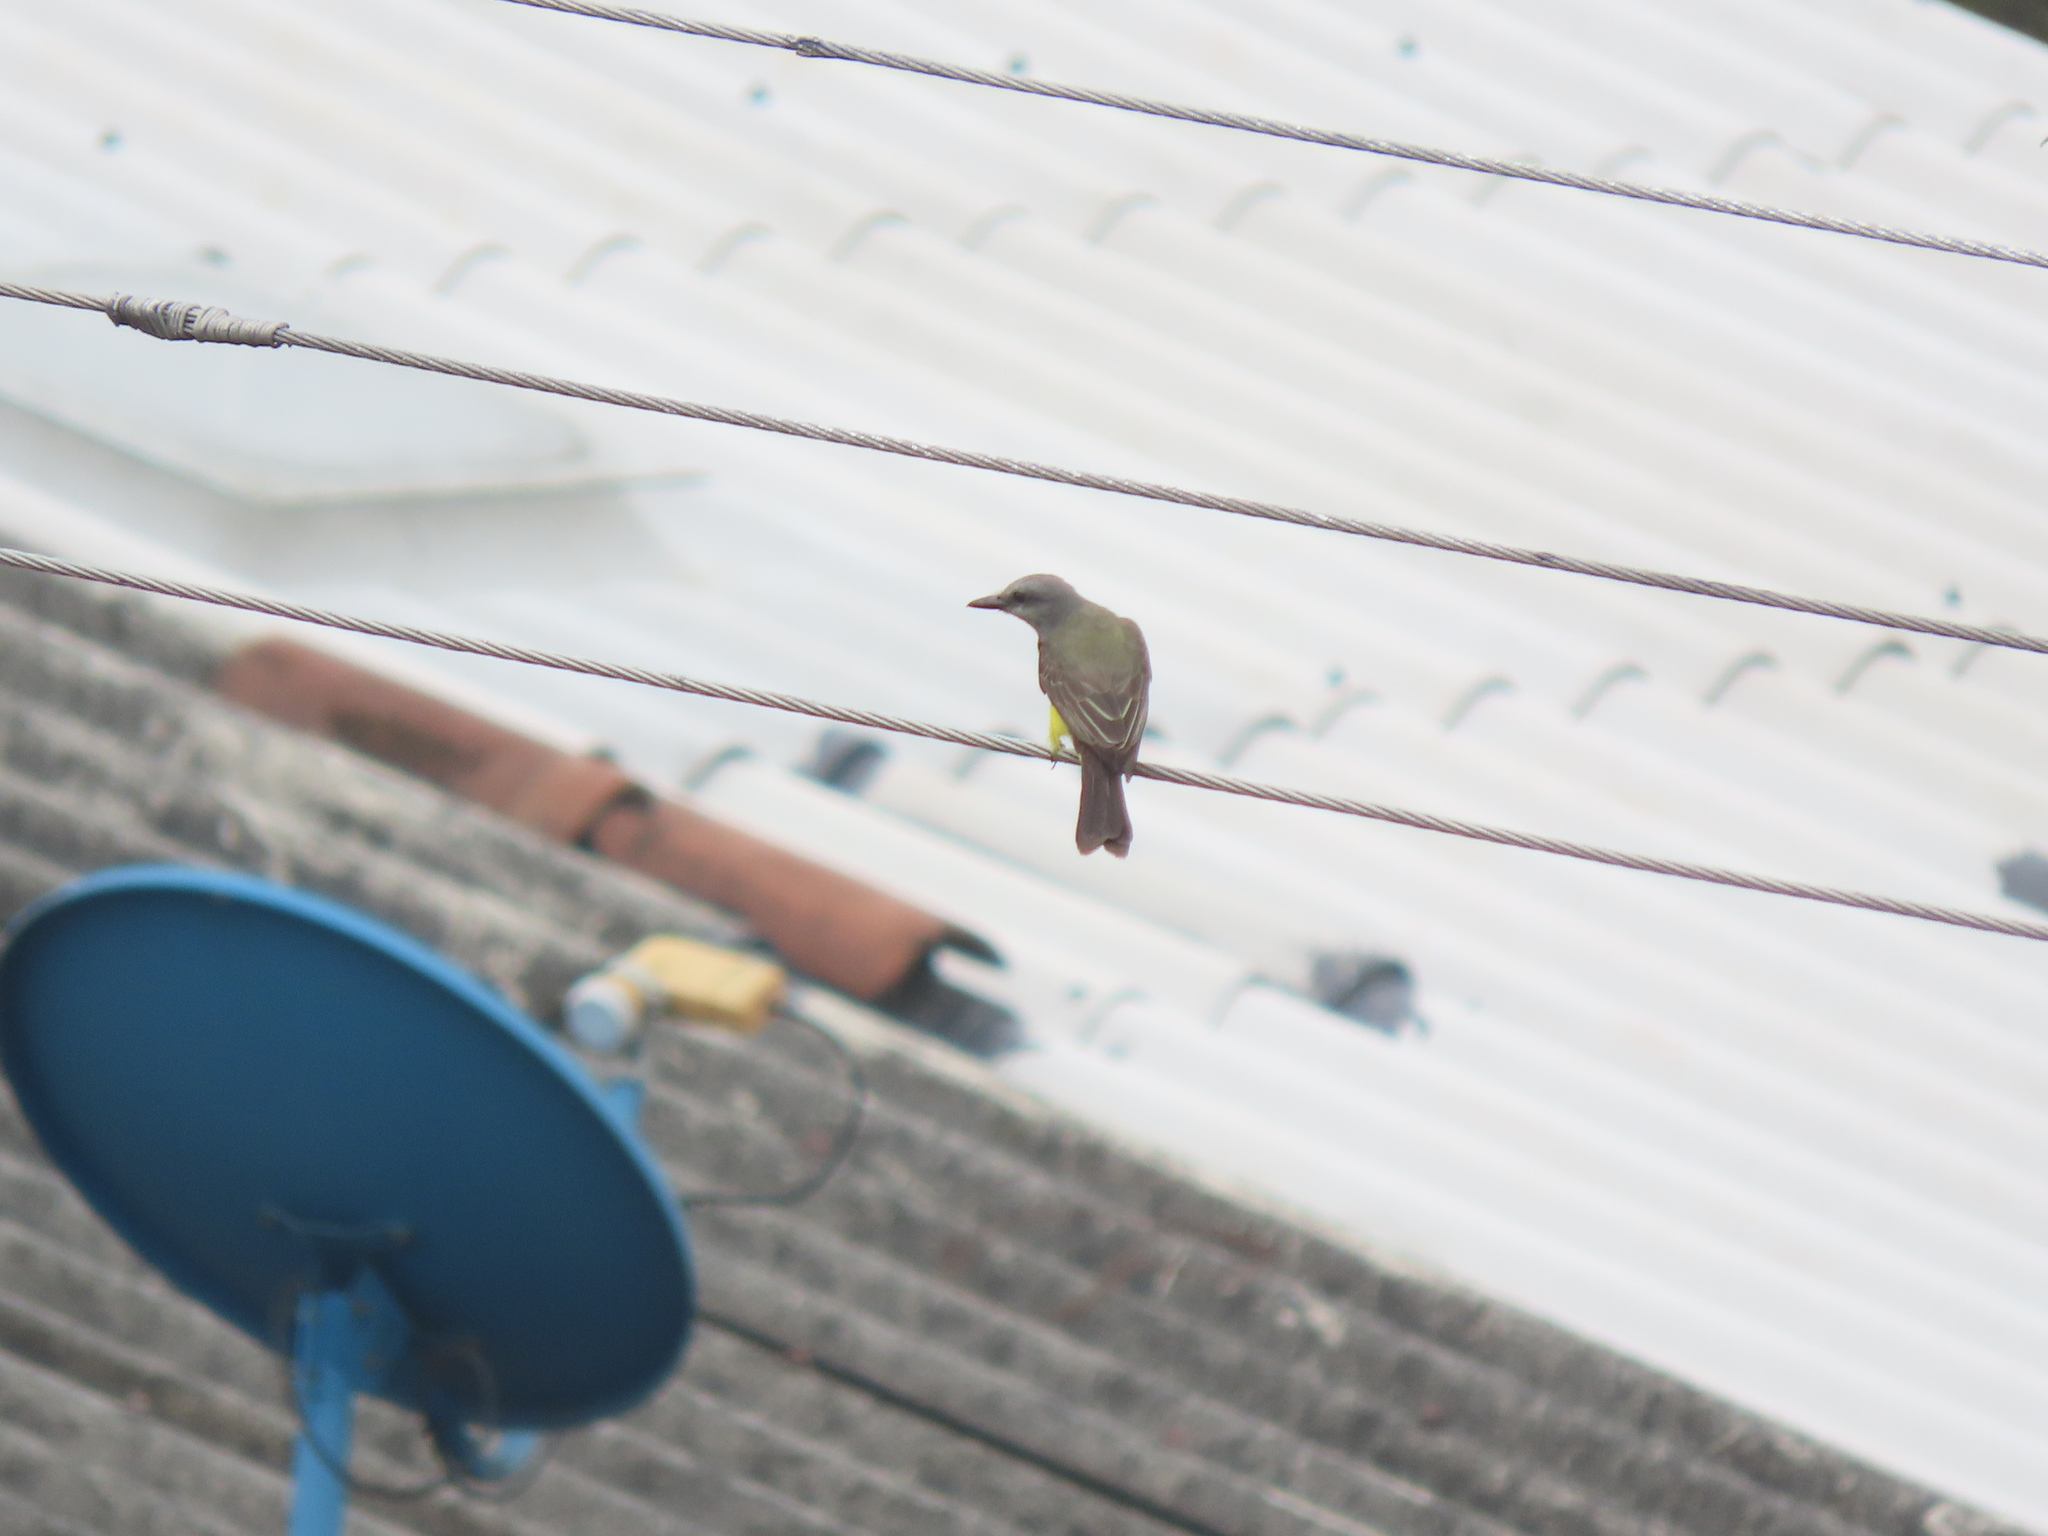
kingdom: Animalia
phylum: Chordata
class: Aves
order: Passeriformes
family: Tyrannidae
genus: Tyrannus
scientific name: Tyrannus melancholicus
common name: Tropical kingbird
